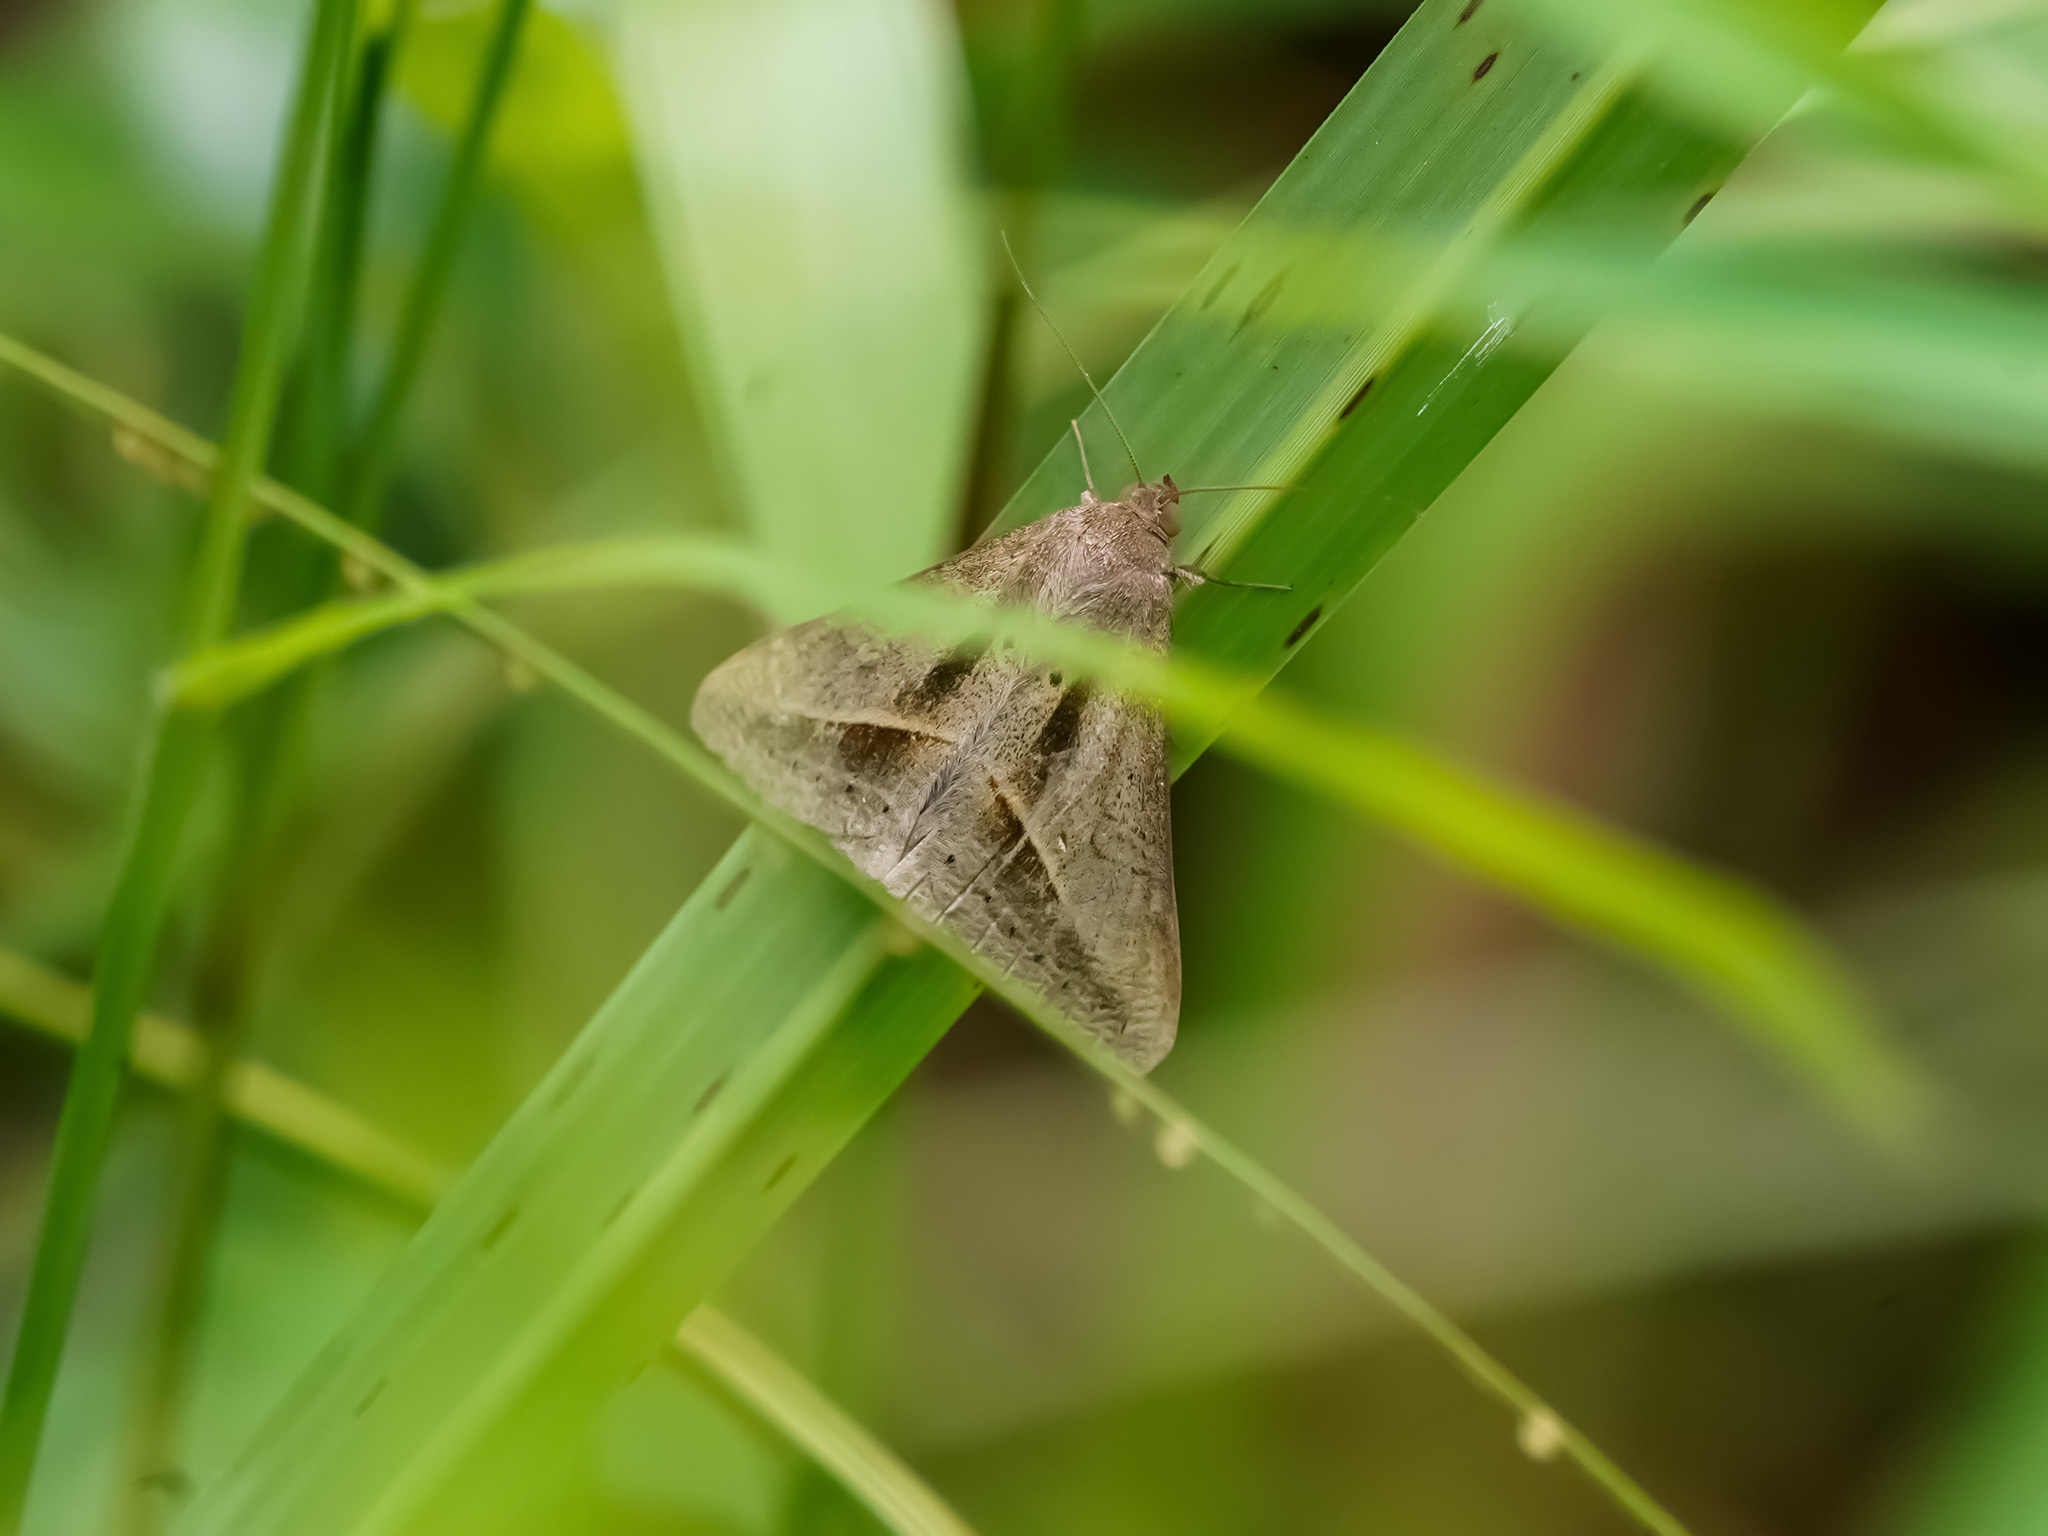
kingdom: Animalia
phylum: Arthropoda
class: Insecta
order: Lepidoptera
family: Erebidae
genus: Mocis
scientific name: Mocis frugalis
